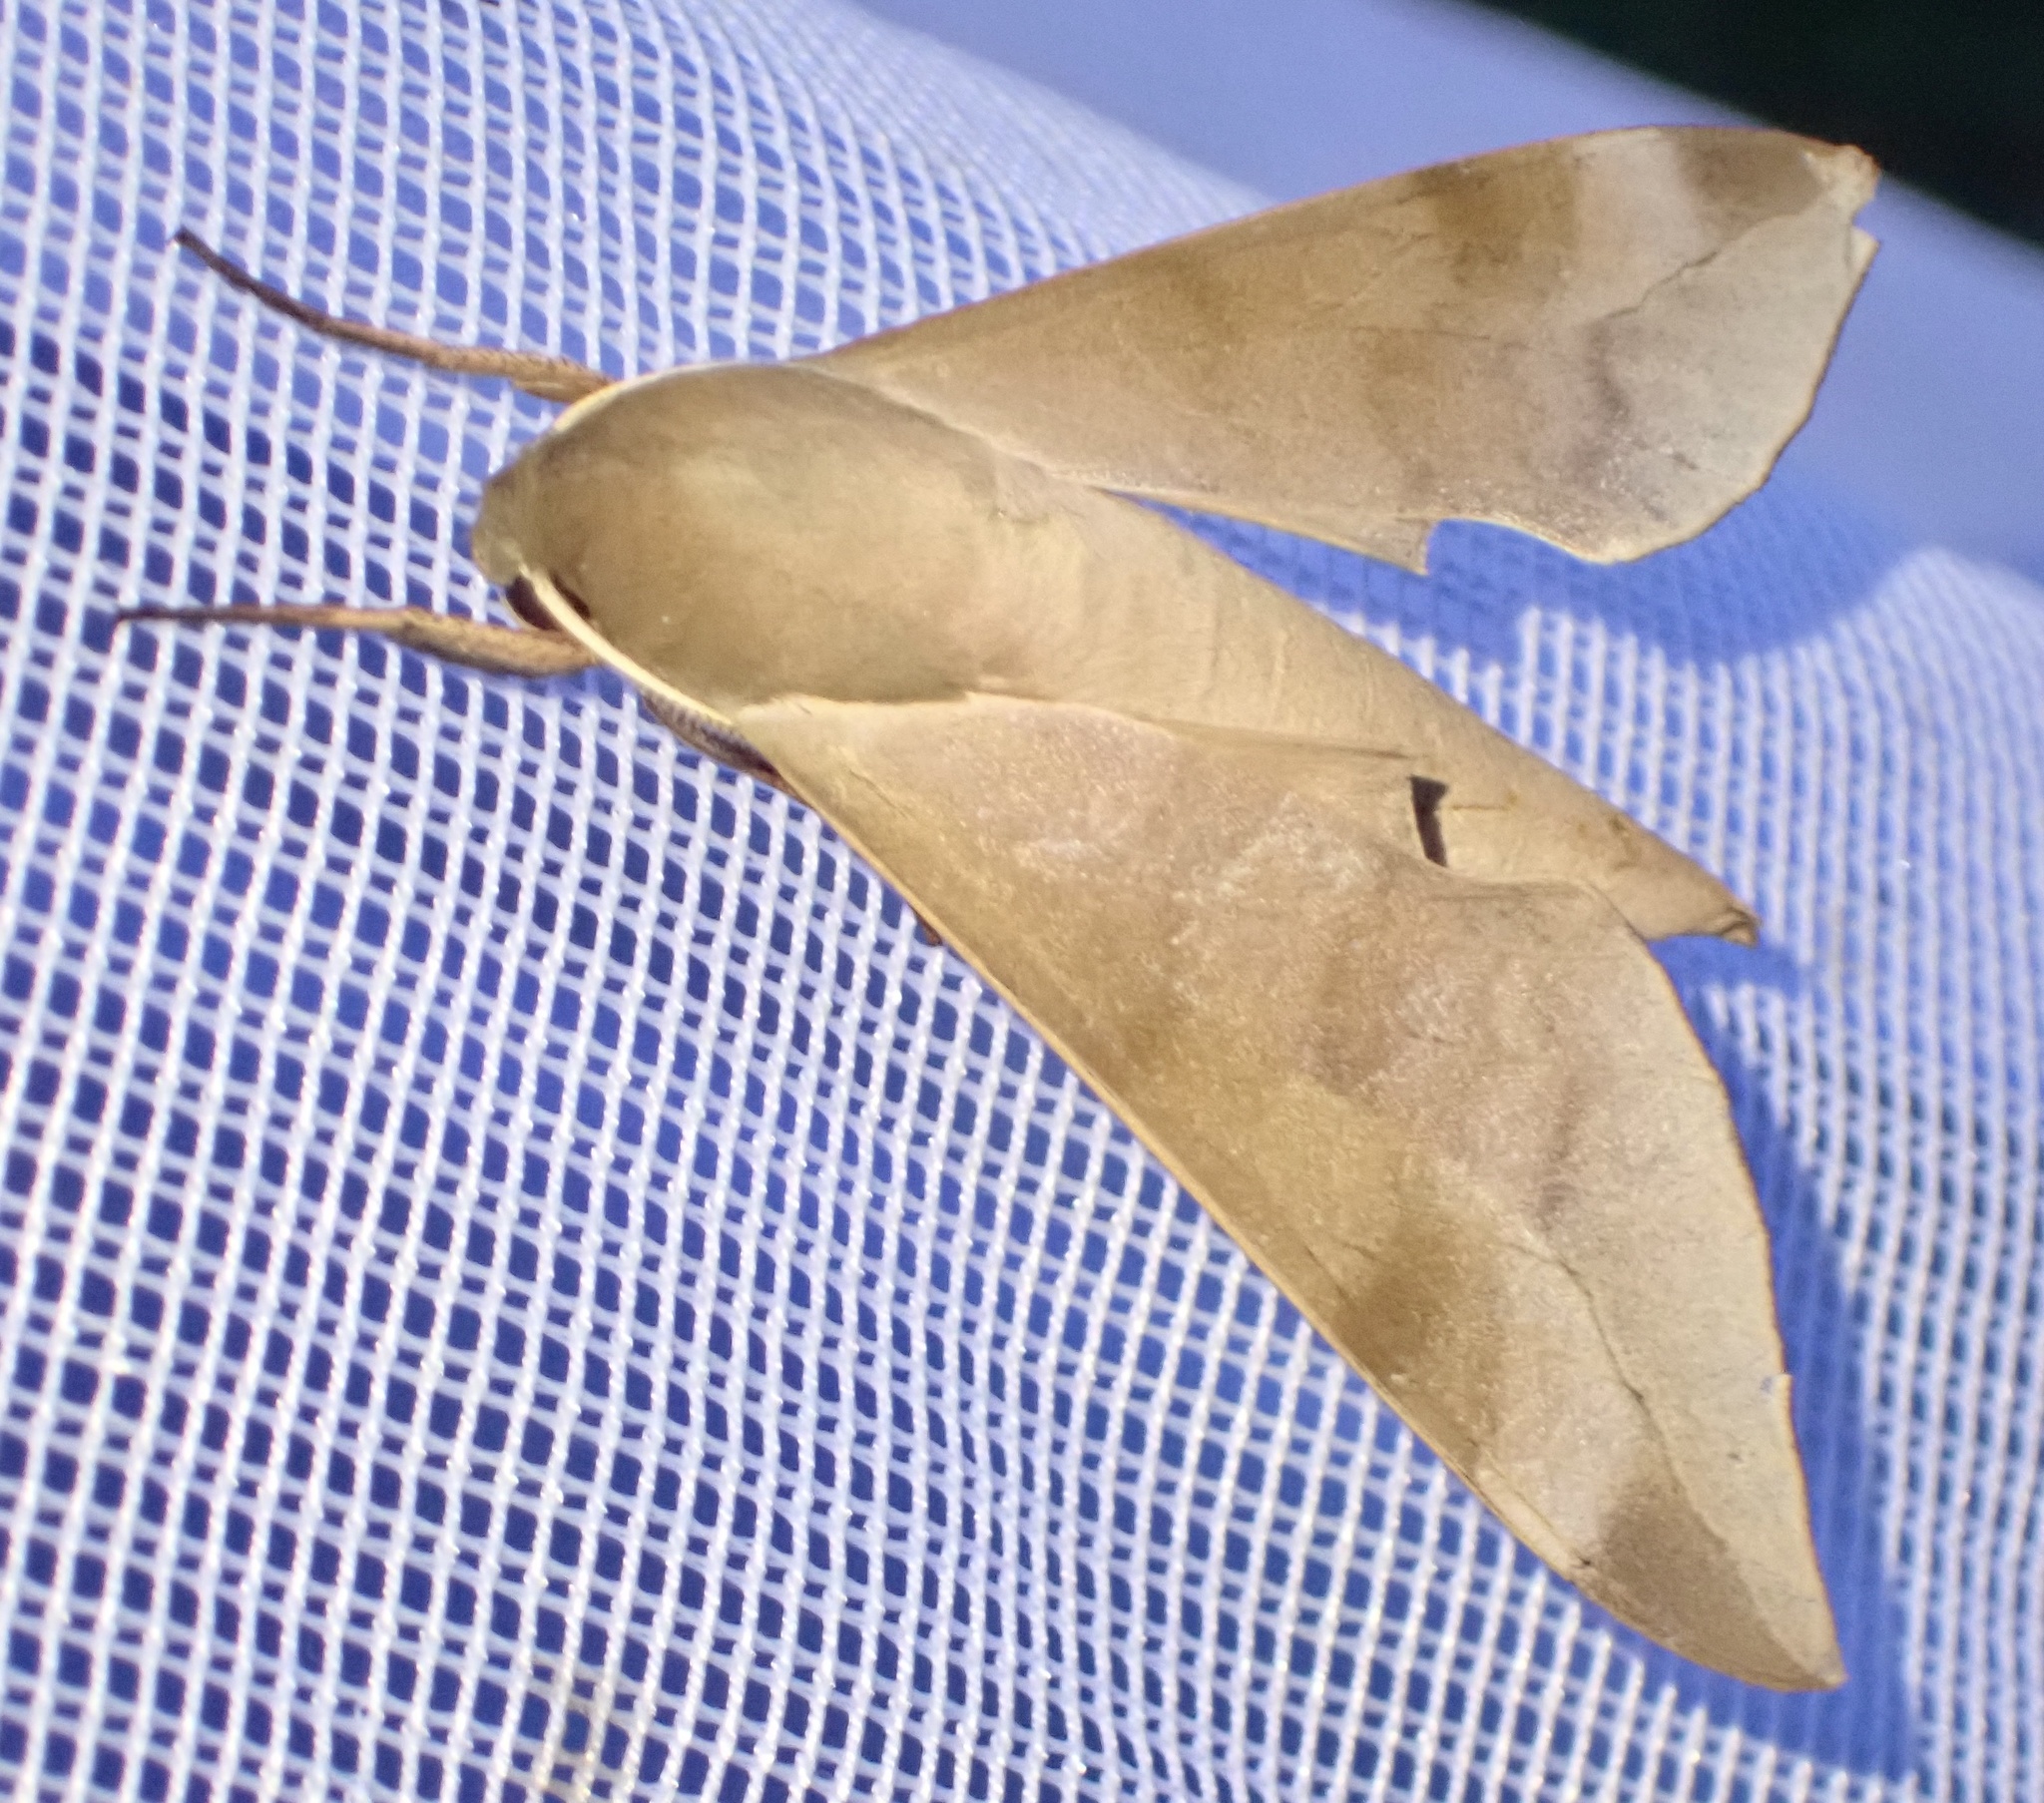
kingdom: Animalia
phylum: Arthropoda
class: Insecta
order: Lepidoptera
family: Sphingidae
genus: Phylloxiphia
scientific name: Phylloxiphia bicolor
